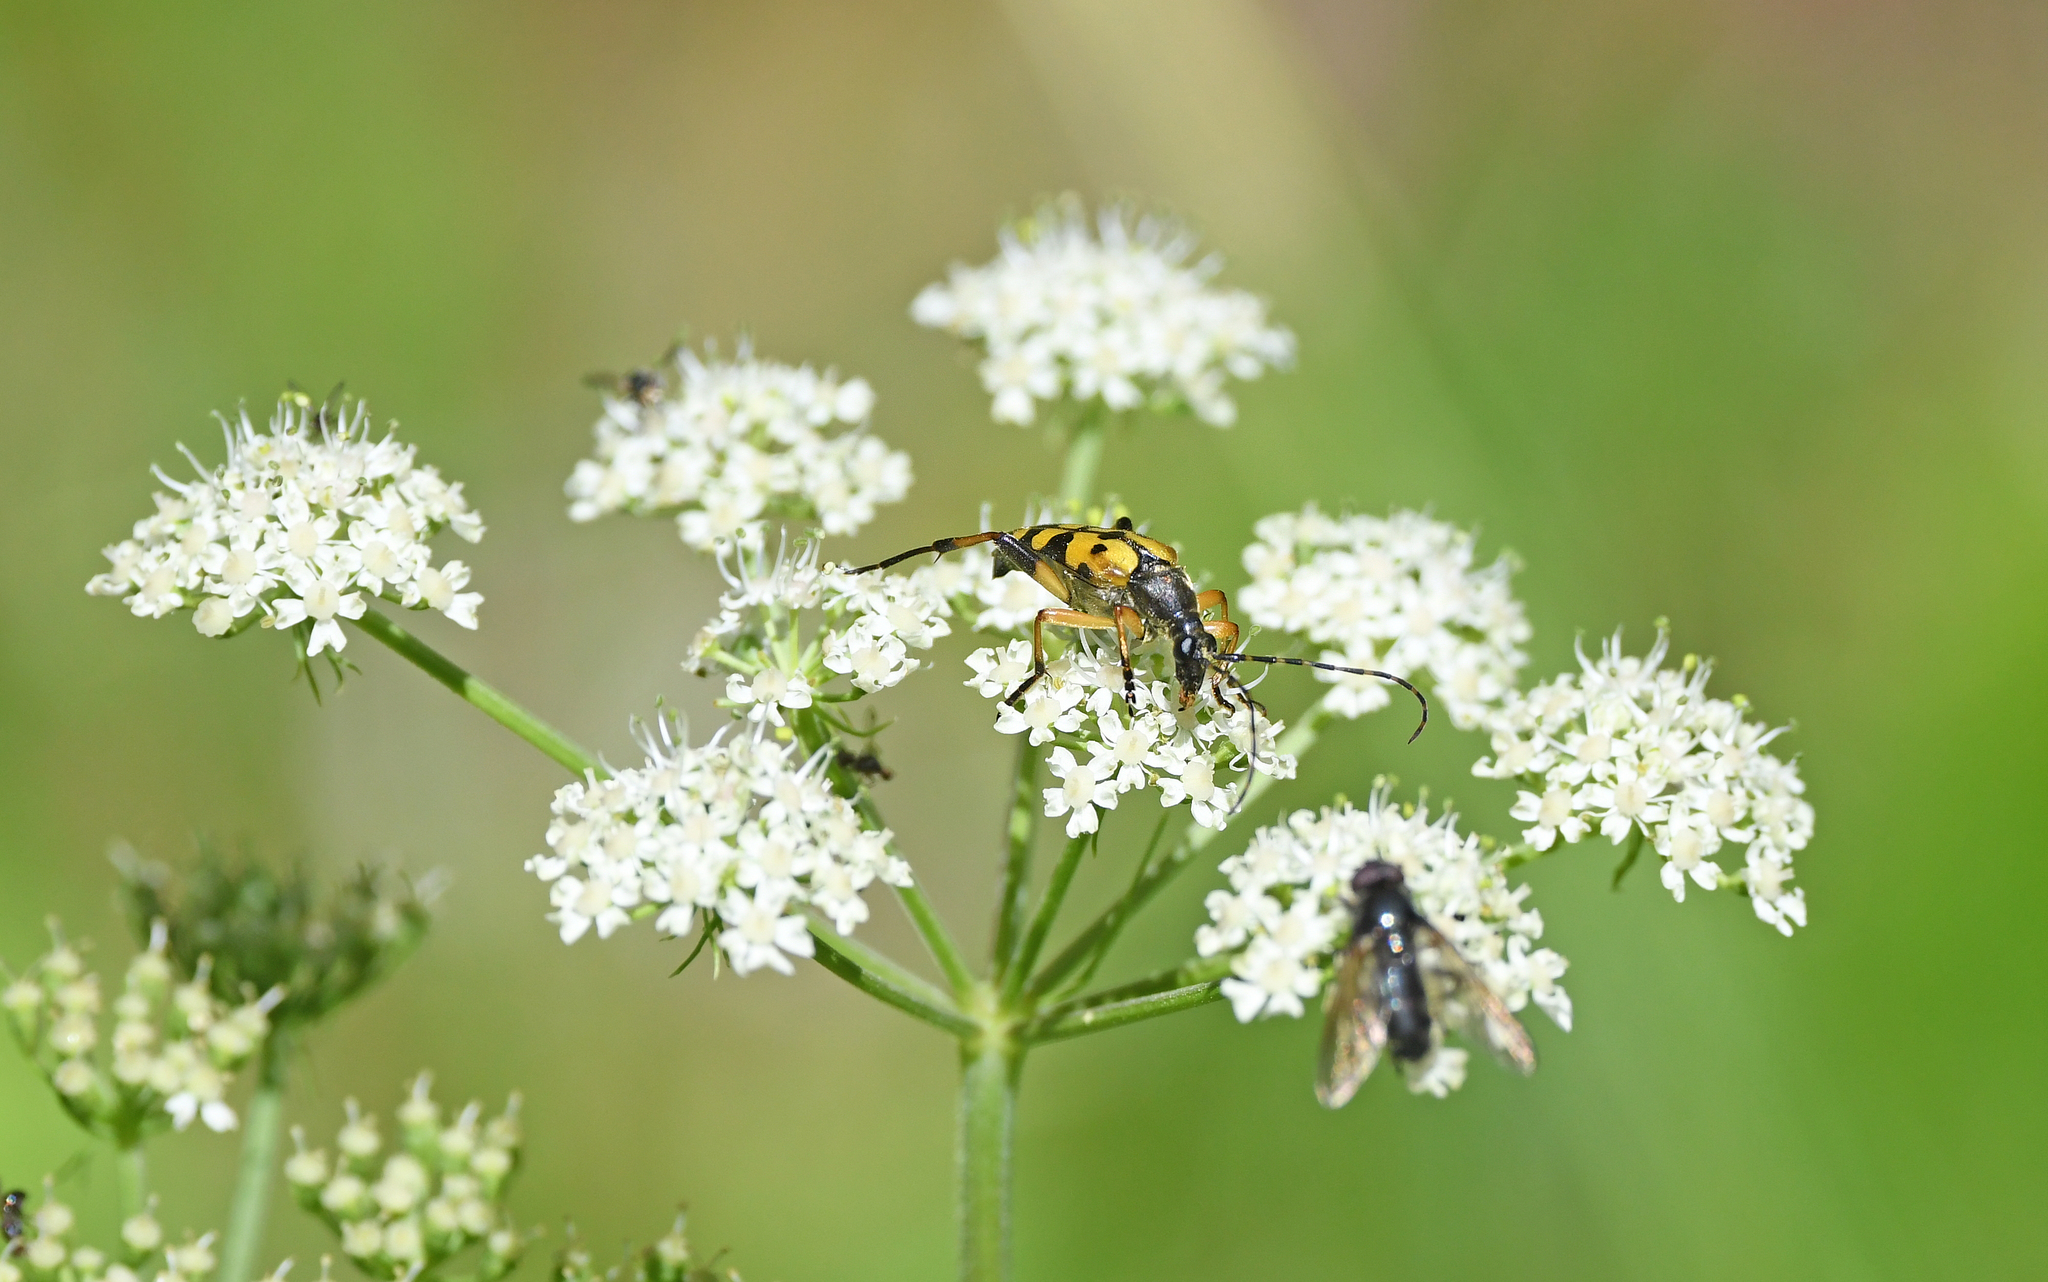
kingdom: Animalia
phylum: Arthropoda
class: Insecta
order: Coleoptera
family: Cerambycidae
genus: Rutpela
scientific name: Rutpela maculata
